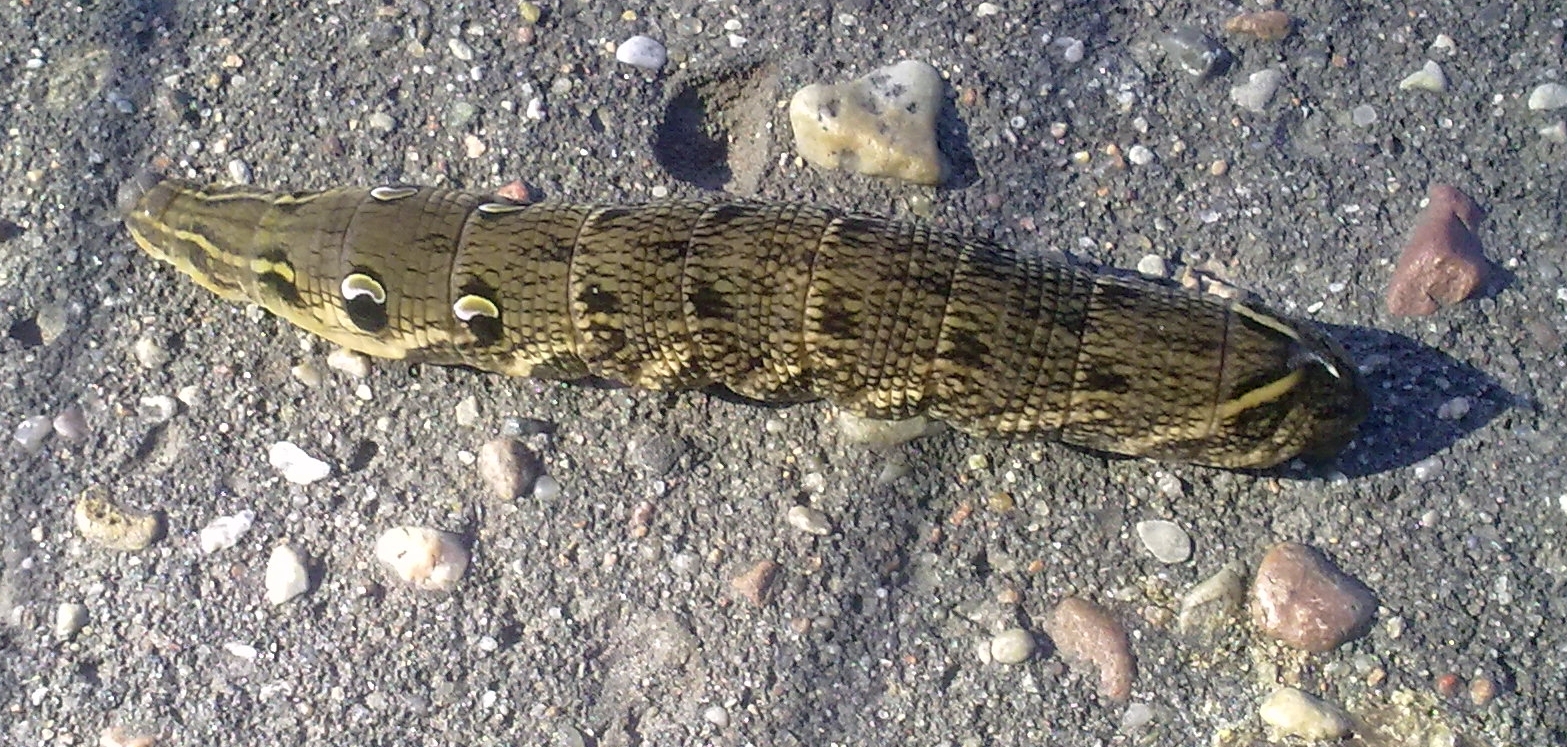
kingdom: Animalia
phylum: Arthropoda
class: Insecta
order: Lepidoptera
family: Sphingidae
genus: Deilephila
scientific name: Deilephila elpenor
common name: Elephant hawk-moth
